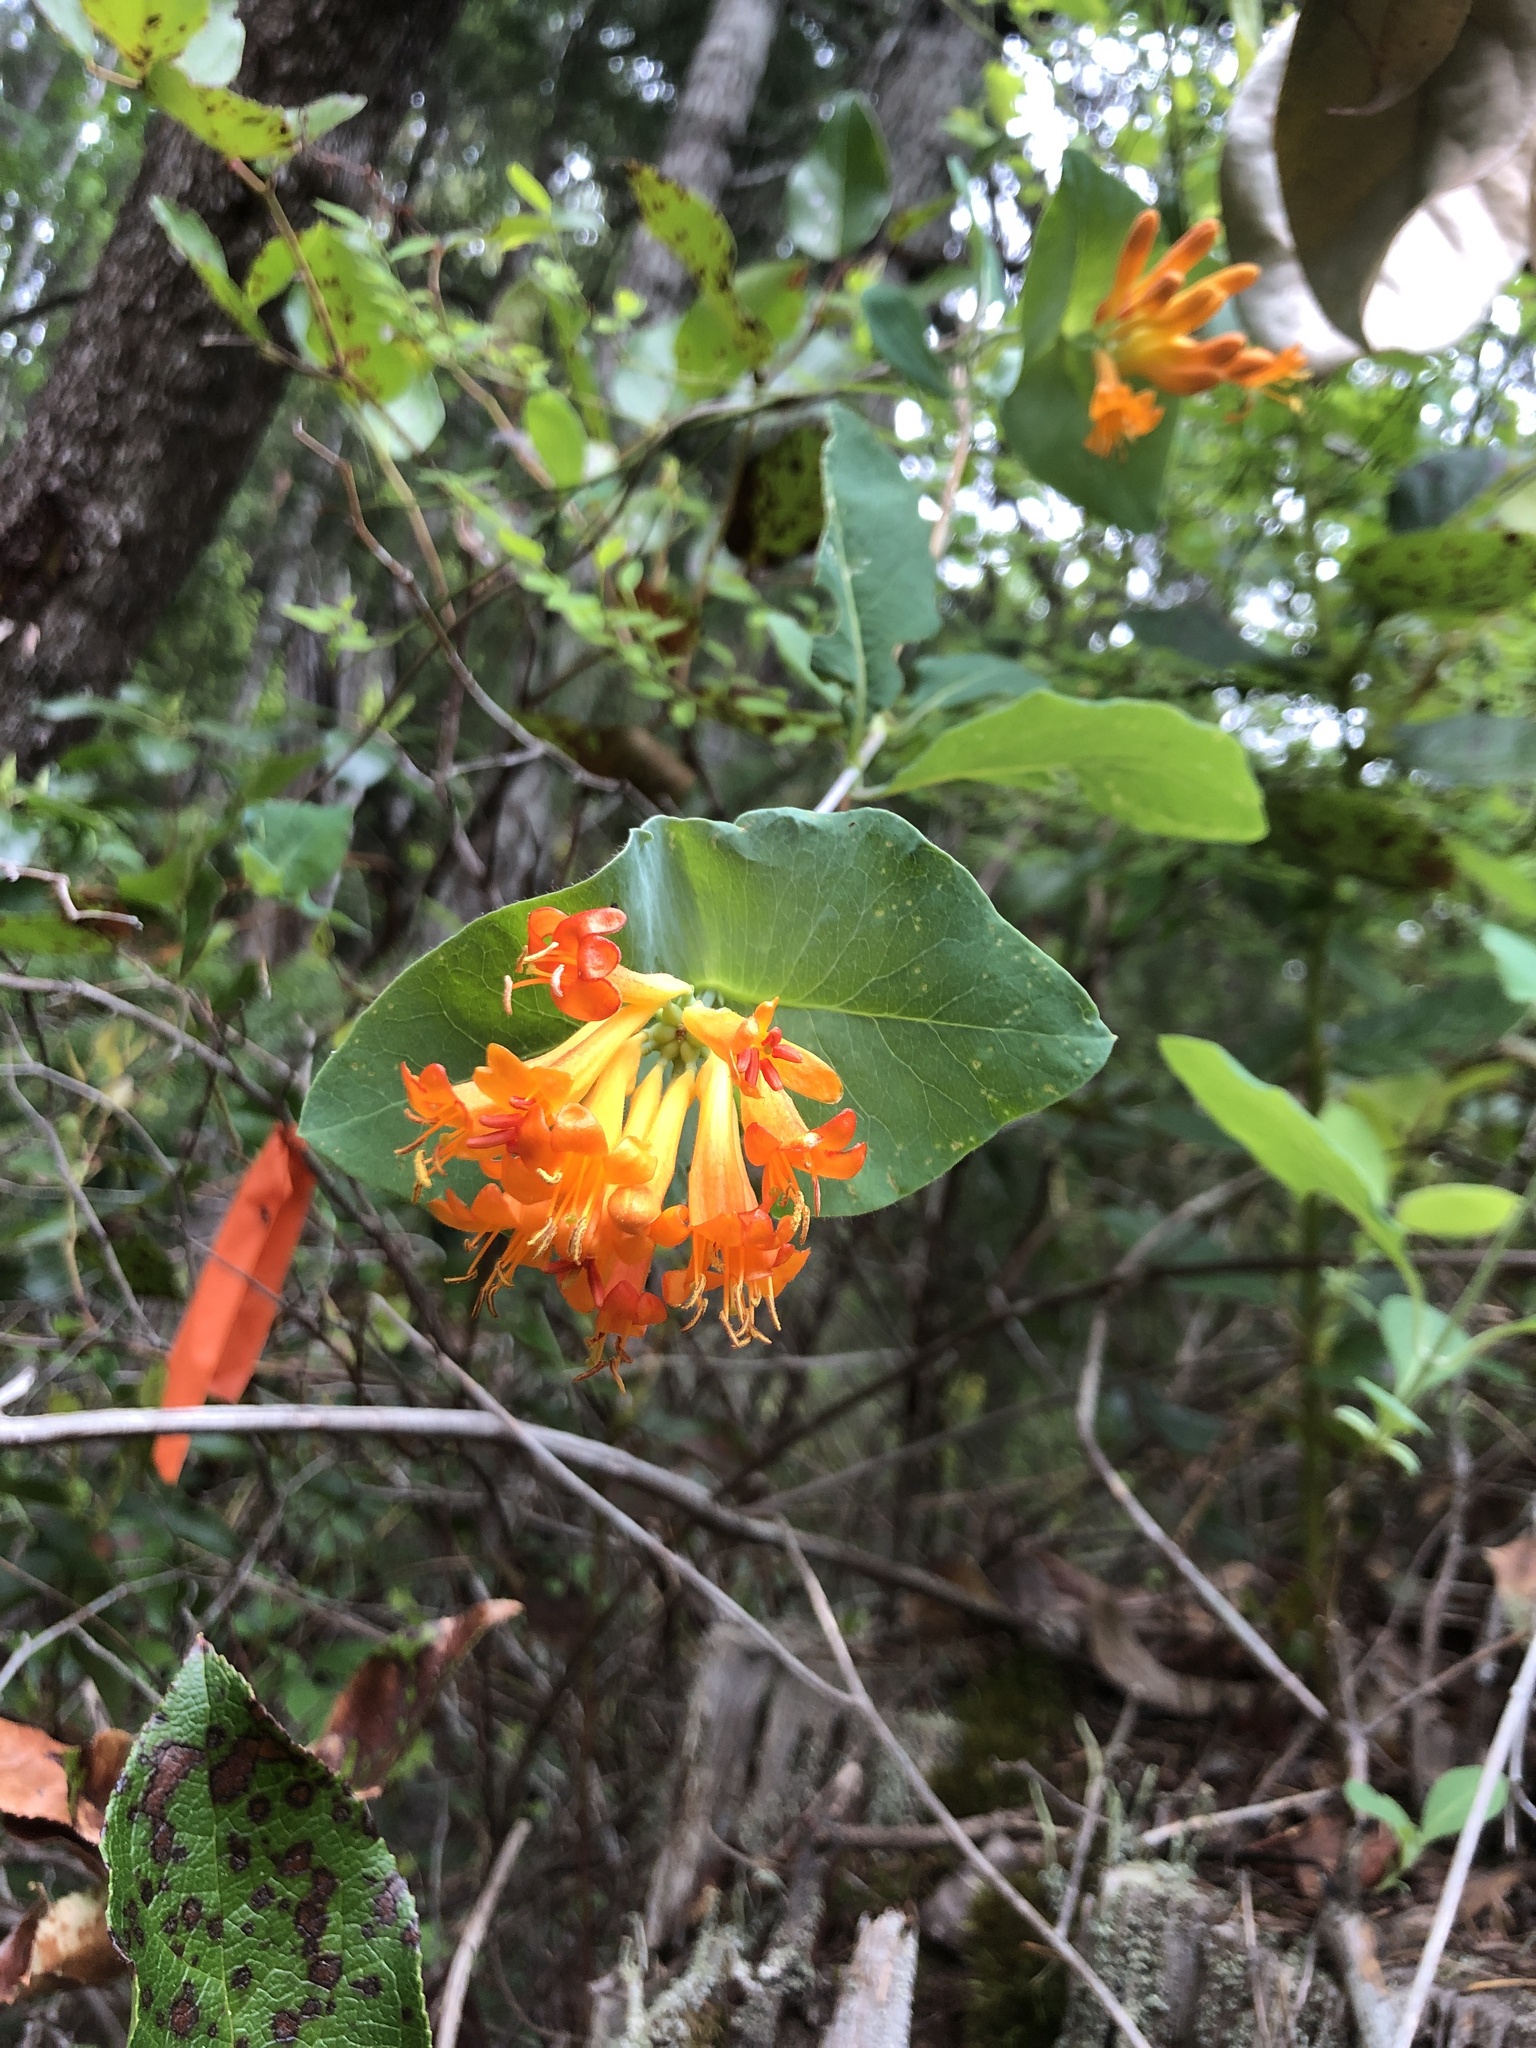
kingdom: Plantae
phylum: Tracheophyta
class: Magnoliopsida
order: Dipsacales
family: Caprifoliaceae
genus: Lonicera
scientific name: Lonicera ciliosa
